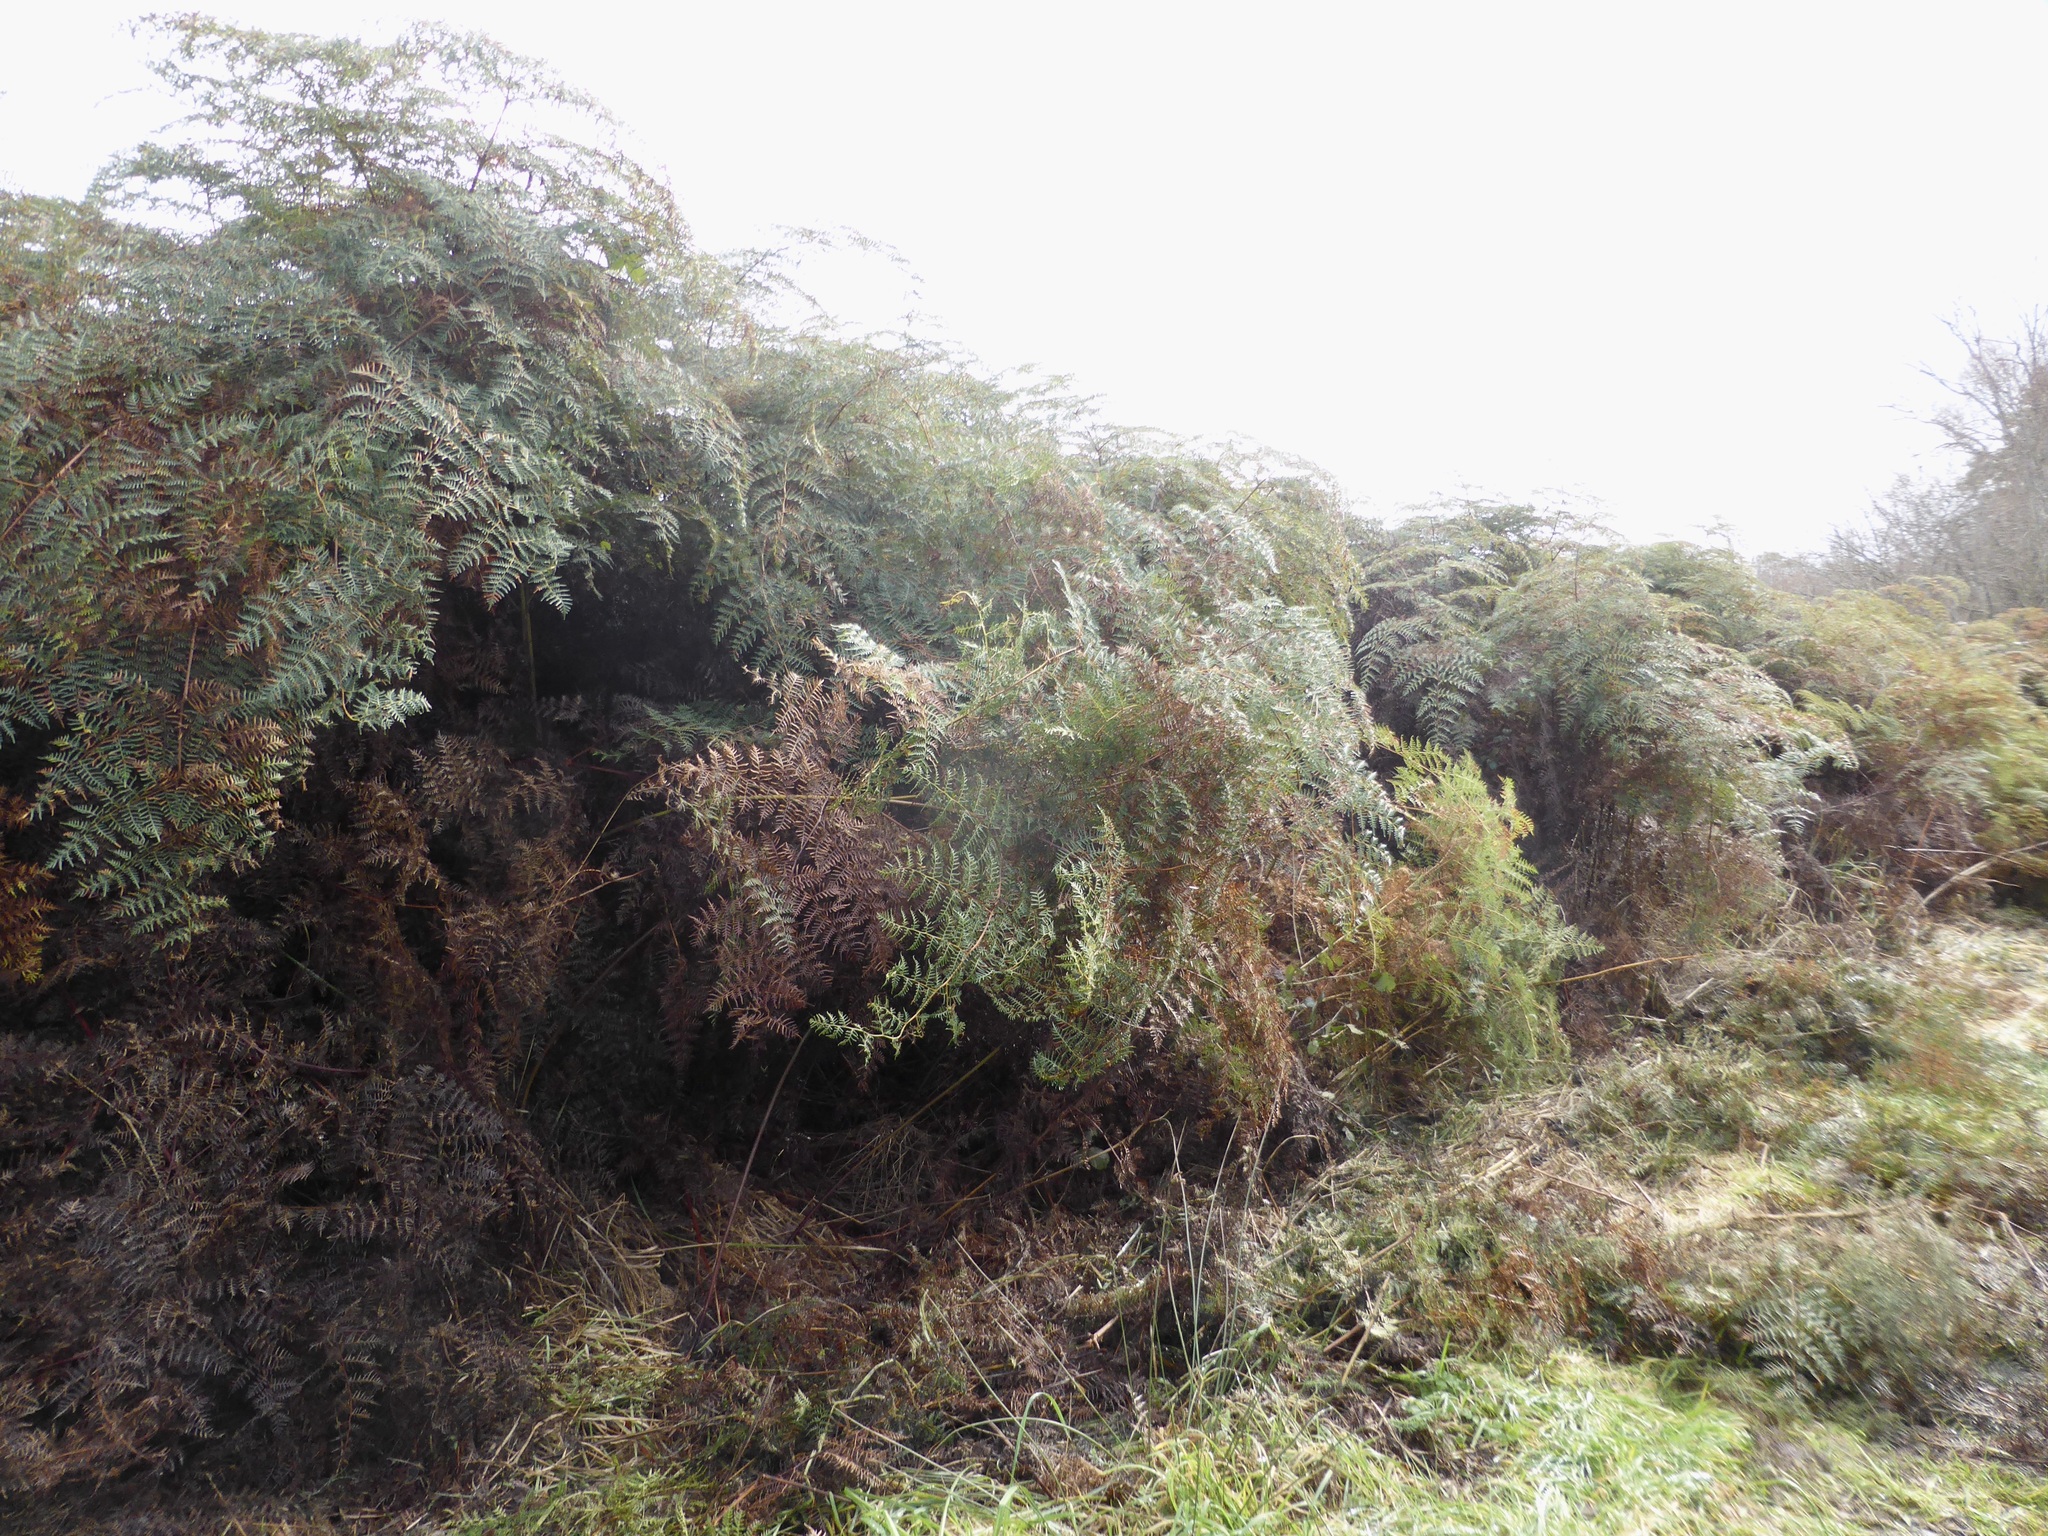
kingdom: Plantae
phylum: Tracheophyta
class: Polypodiopsida
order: Polypodiales
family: Dennstaedtiaceae
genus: Pteridium
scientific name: Pteridium esculentum
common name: Bracken fern
